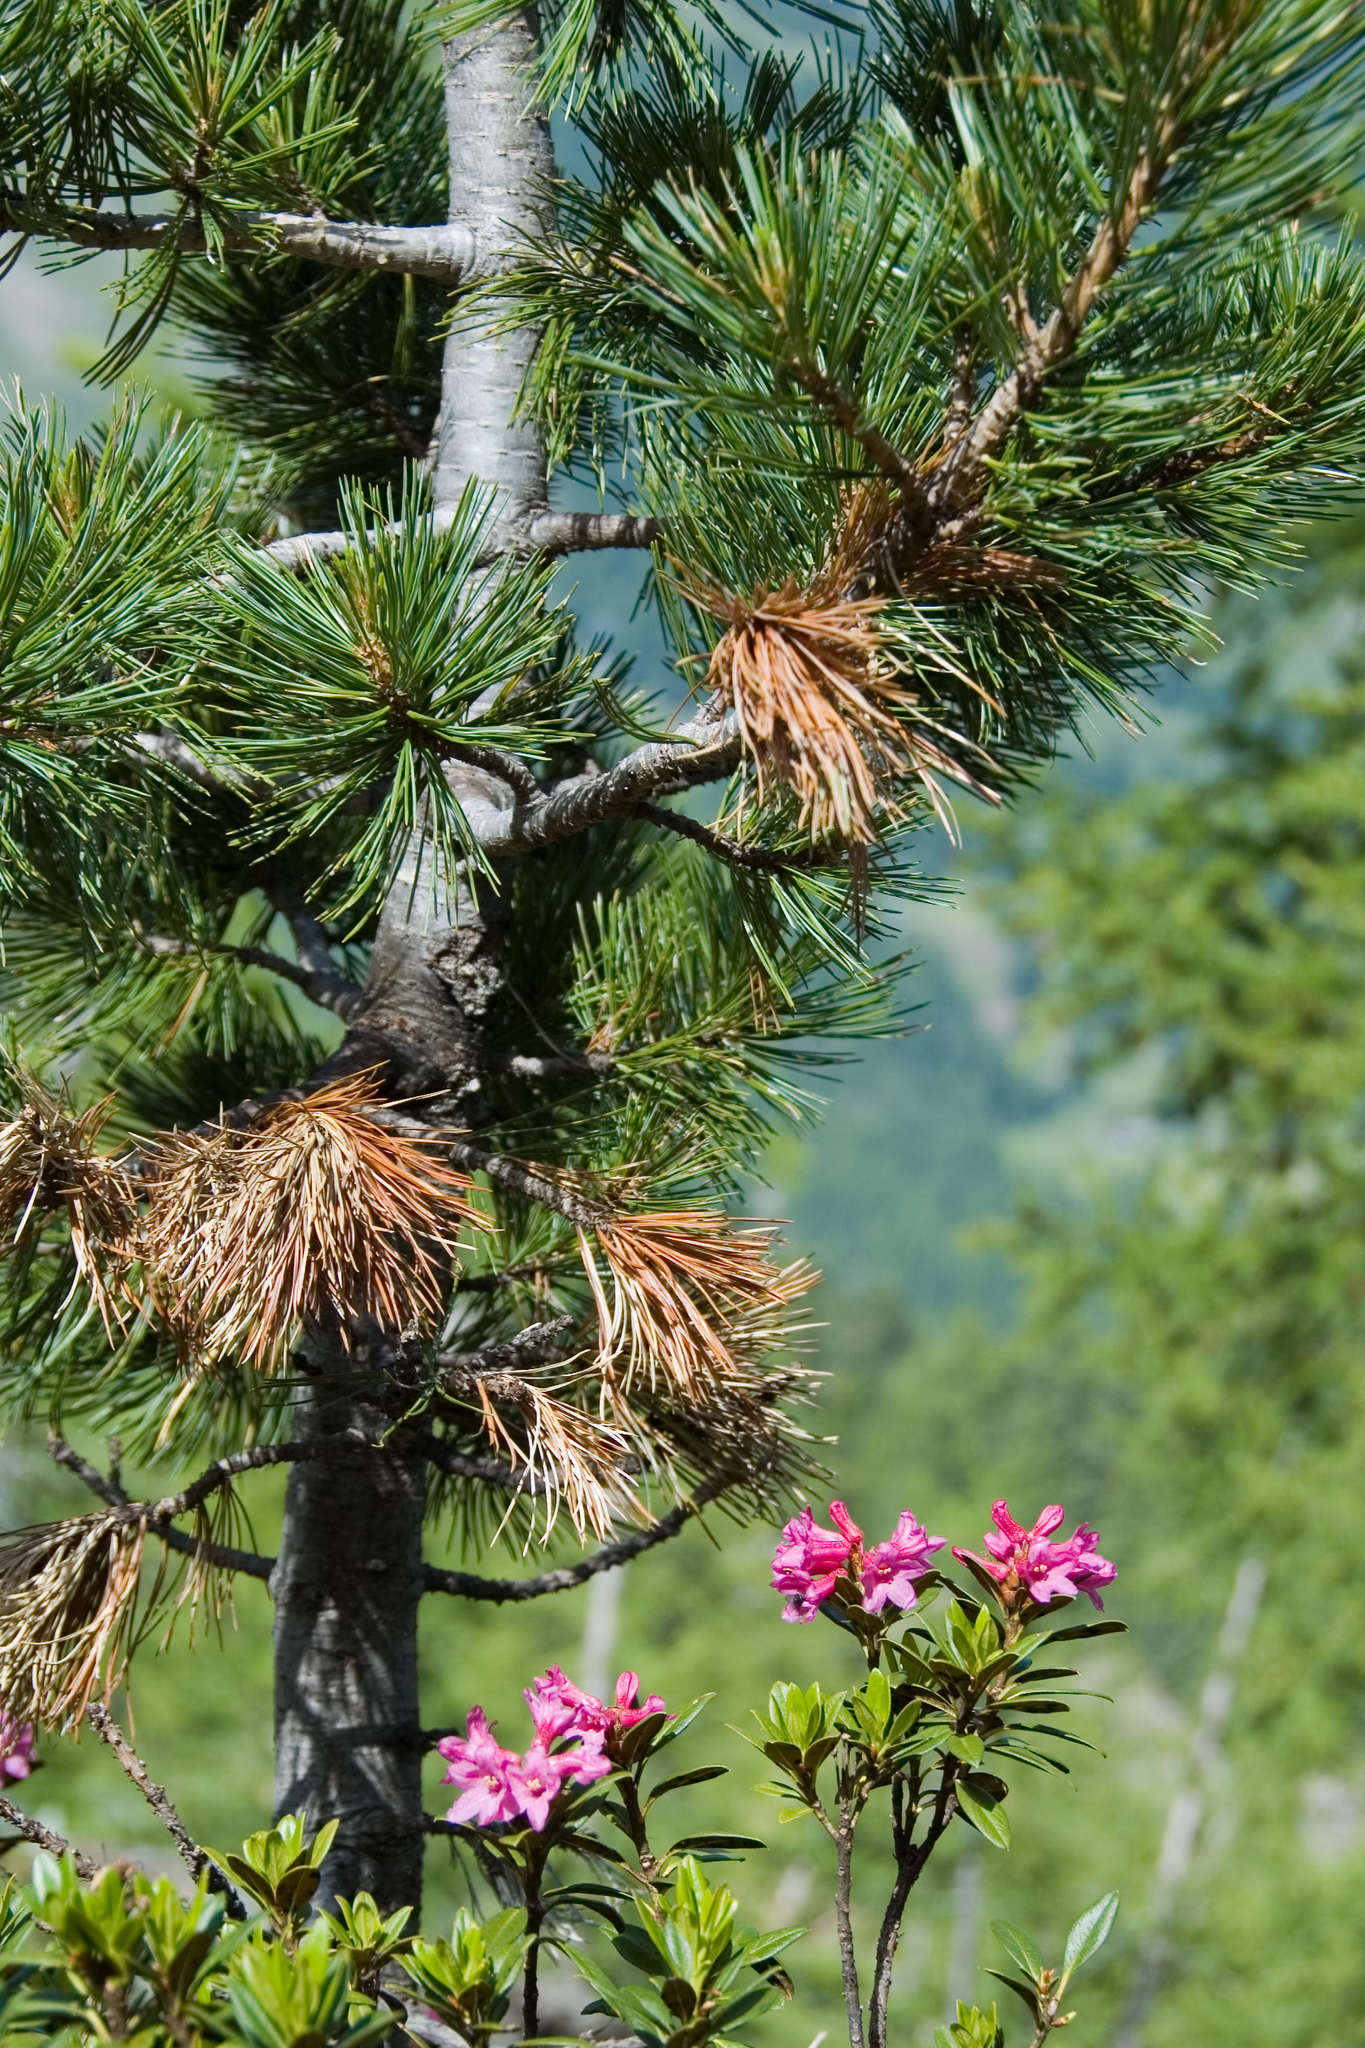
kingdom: Plantae
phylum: Tracheophyta
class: Magnoliopsida
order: Ericales
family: Ericaceae
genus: Rhododendron
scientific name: Rhododendron ferrugineum
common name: Alpenrose
